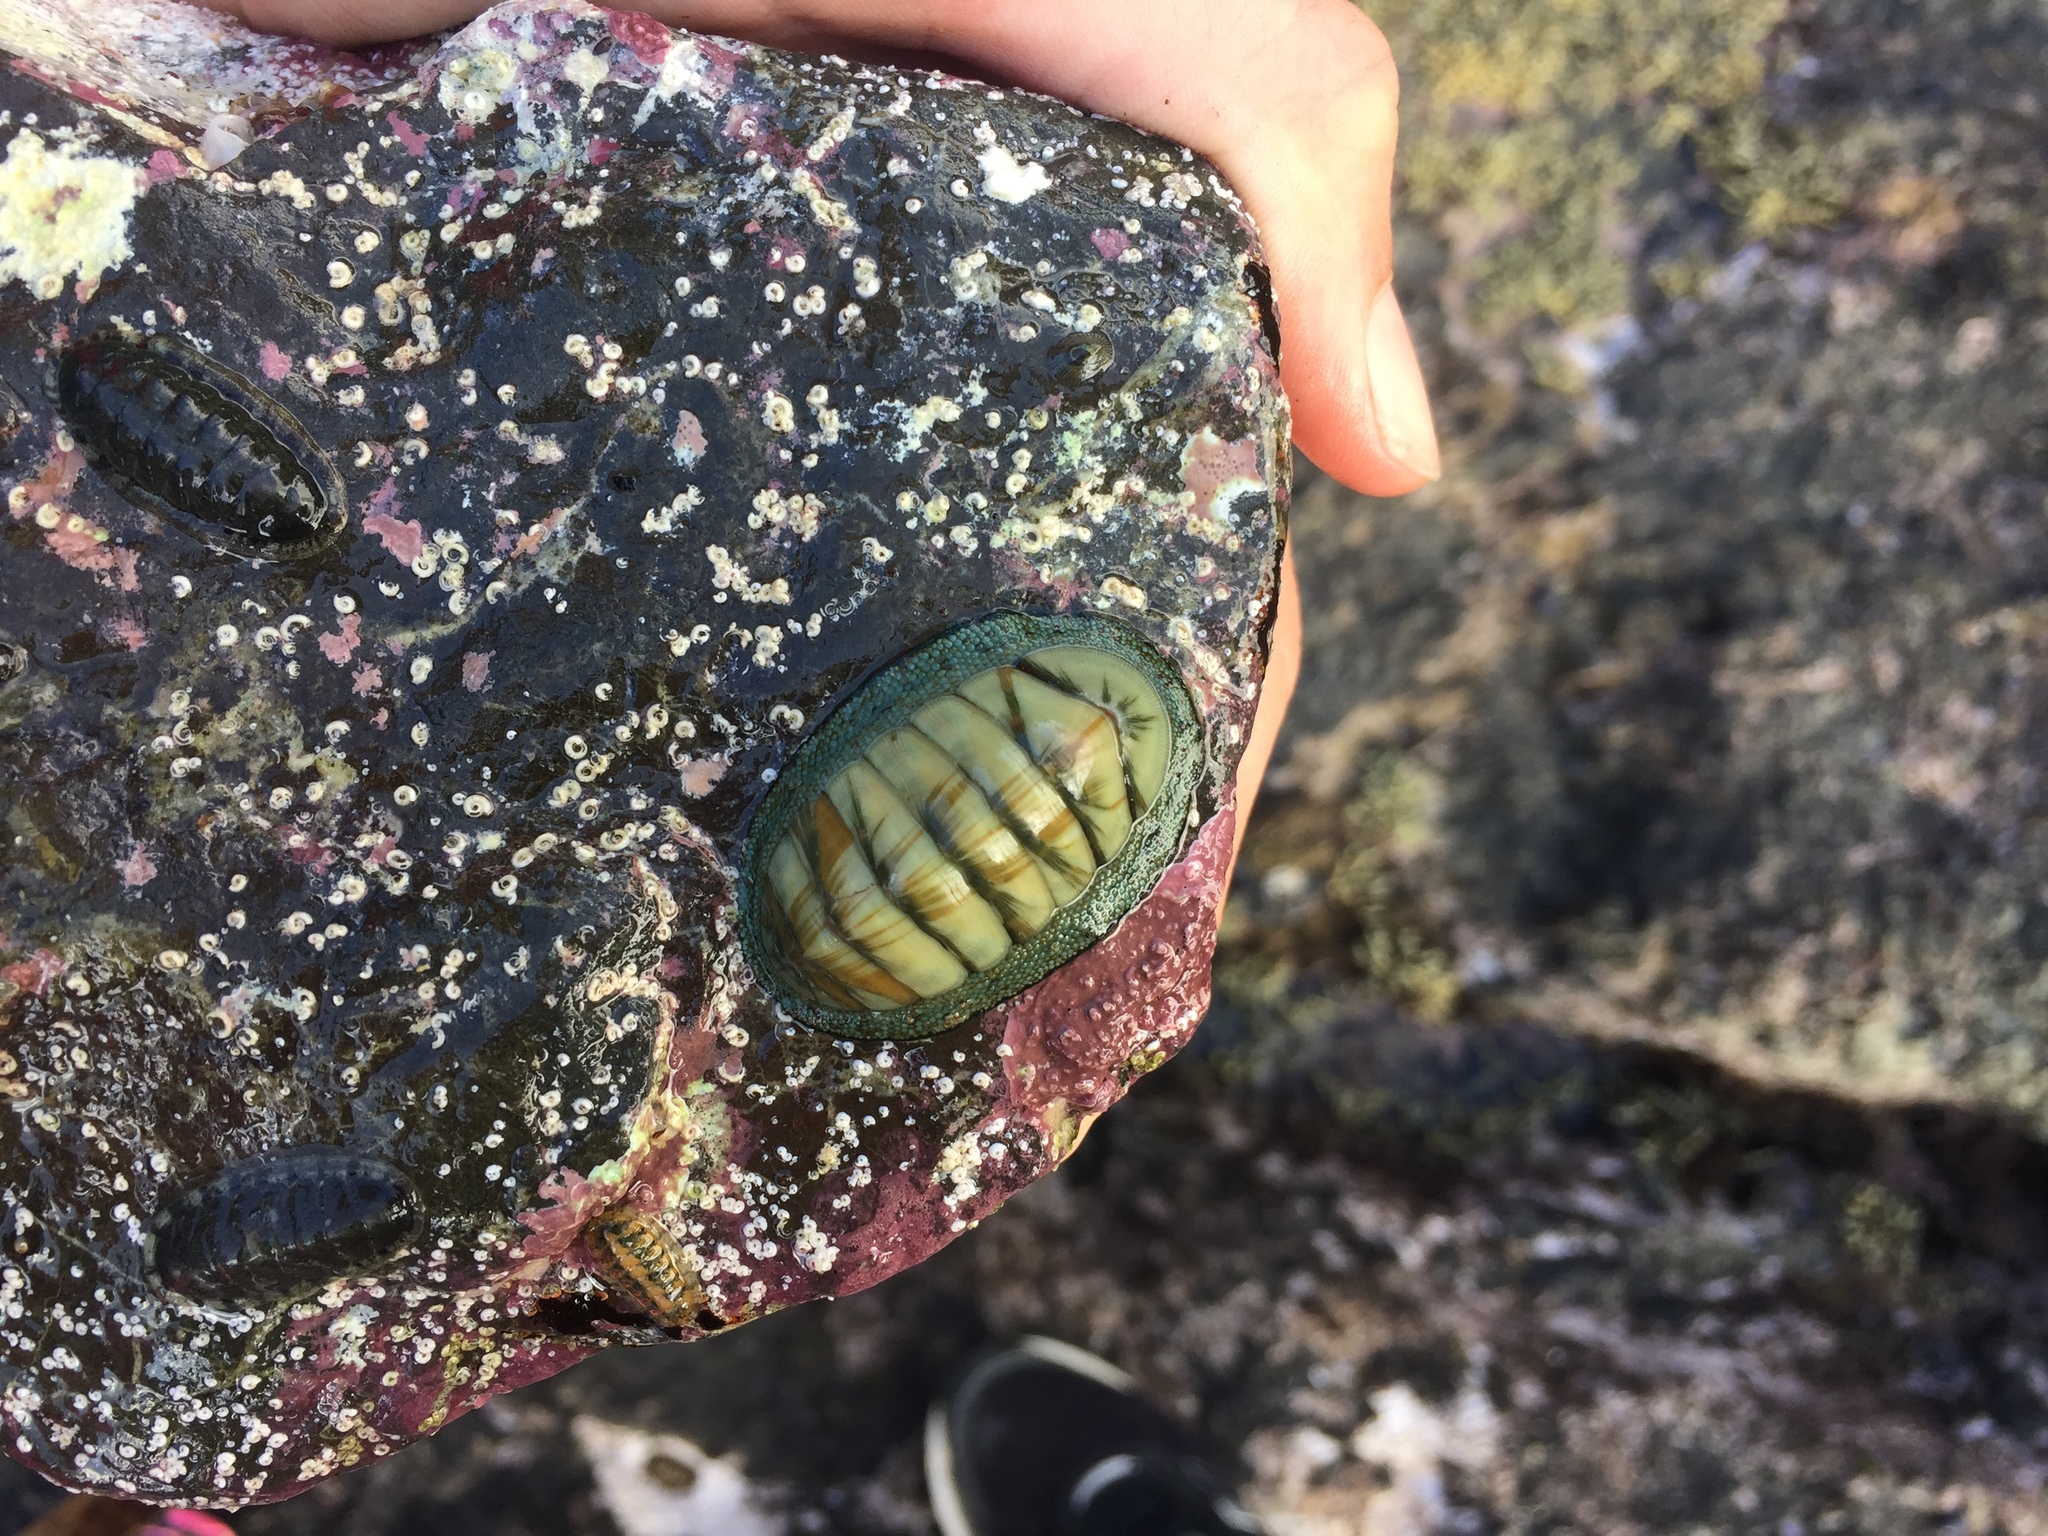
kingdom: Animalia
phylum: Mollusca
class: Polyplacophora
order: Chitonida
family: Ischnochitonidae
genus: Ischnochiton
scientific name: Ischnochiton maorianus
